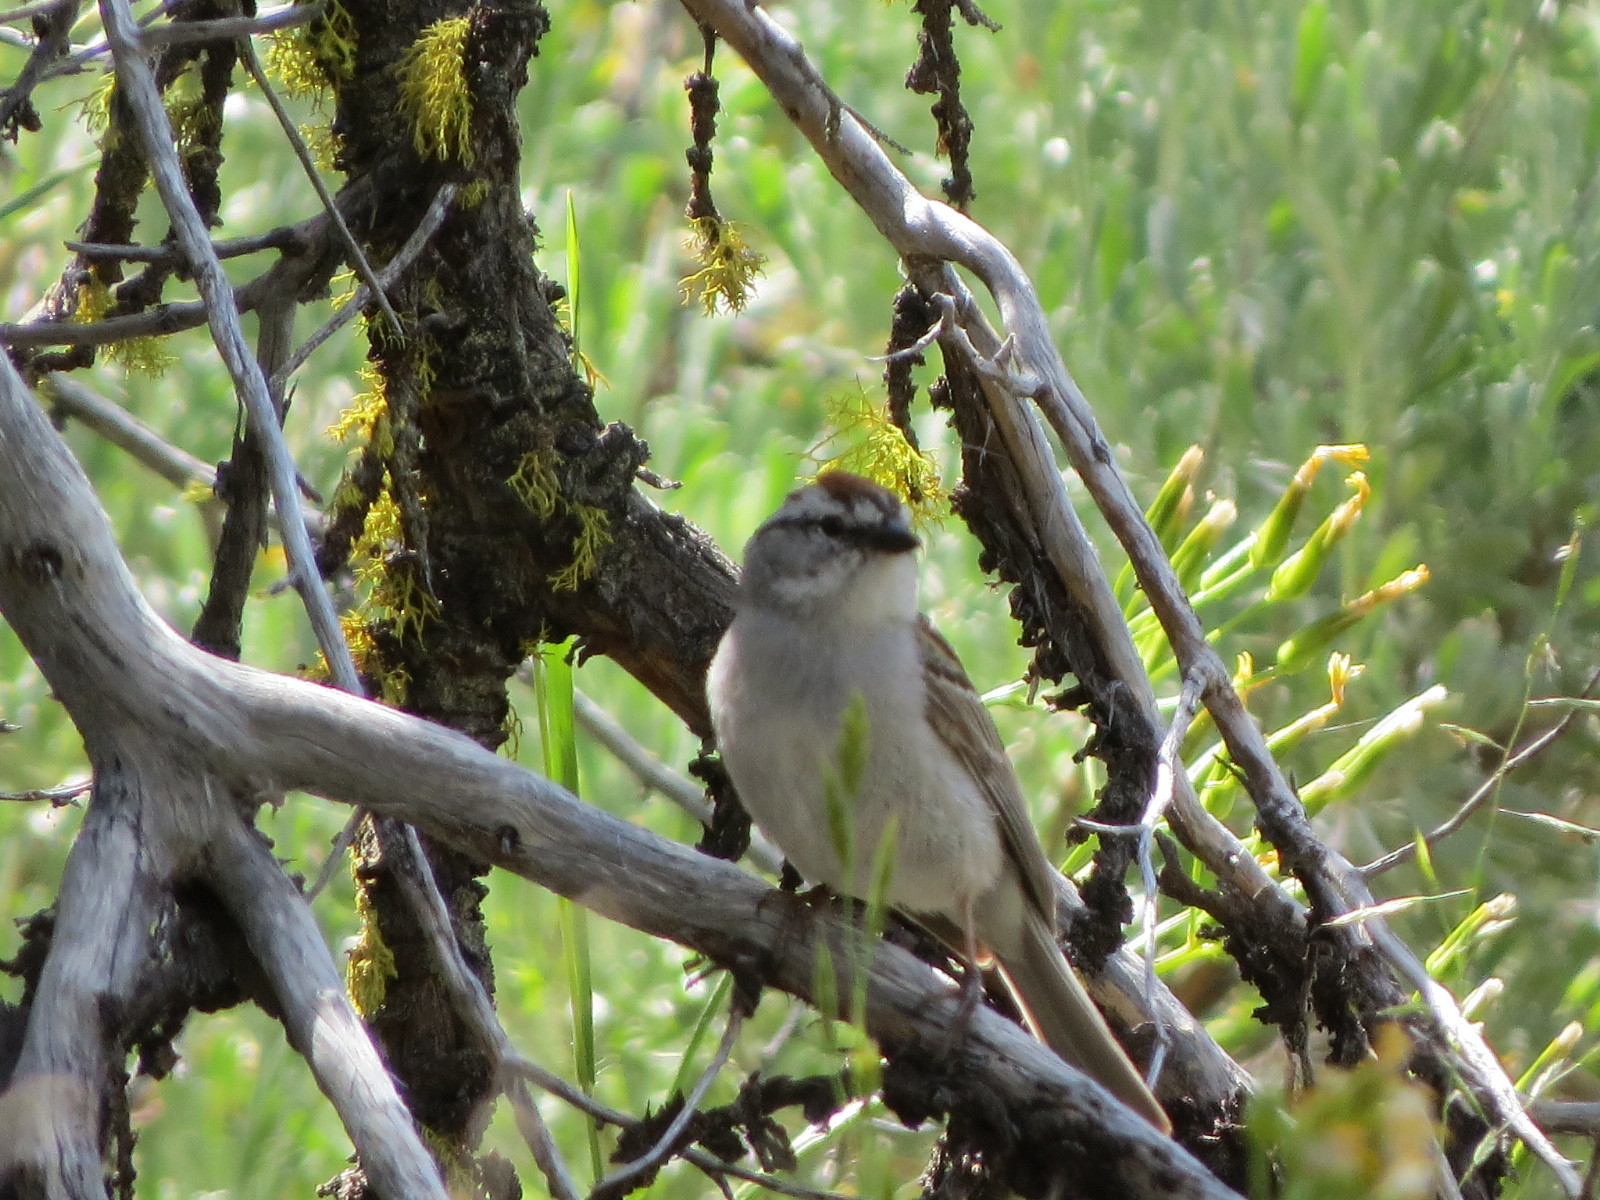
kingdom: Animalia
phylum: Chordata
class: Aves
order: Passeriformes
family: Passerellidae
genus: Spizella
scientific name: Spizella passerina
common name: Chipping sparrow
